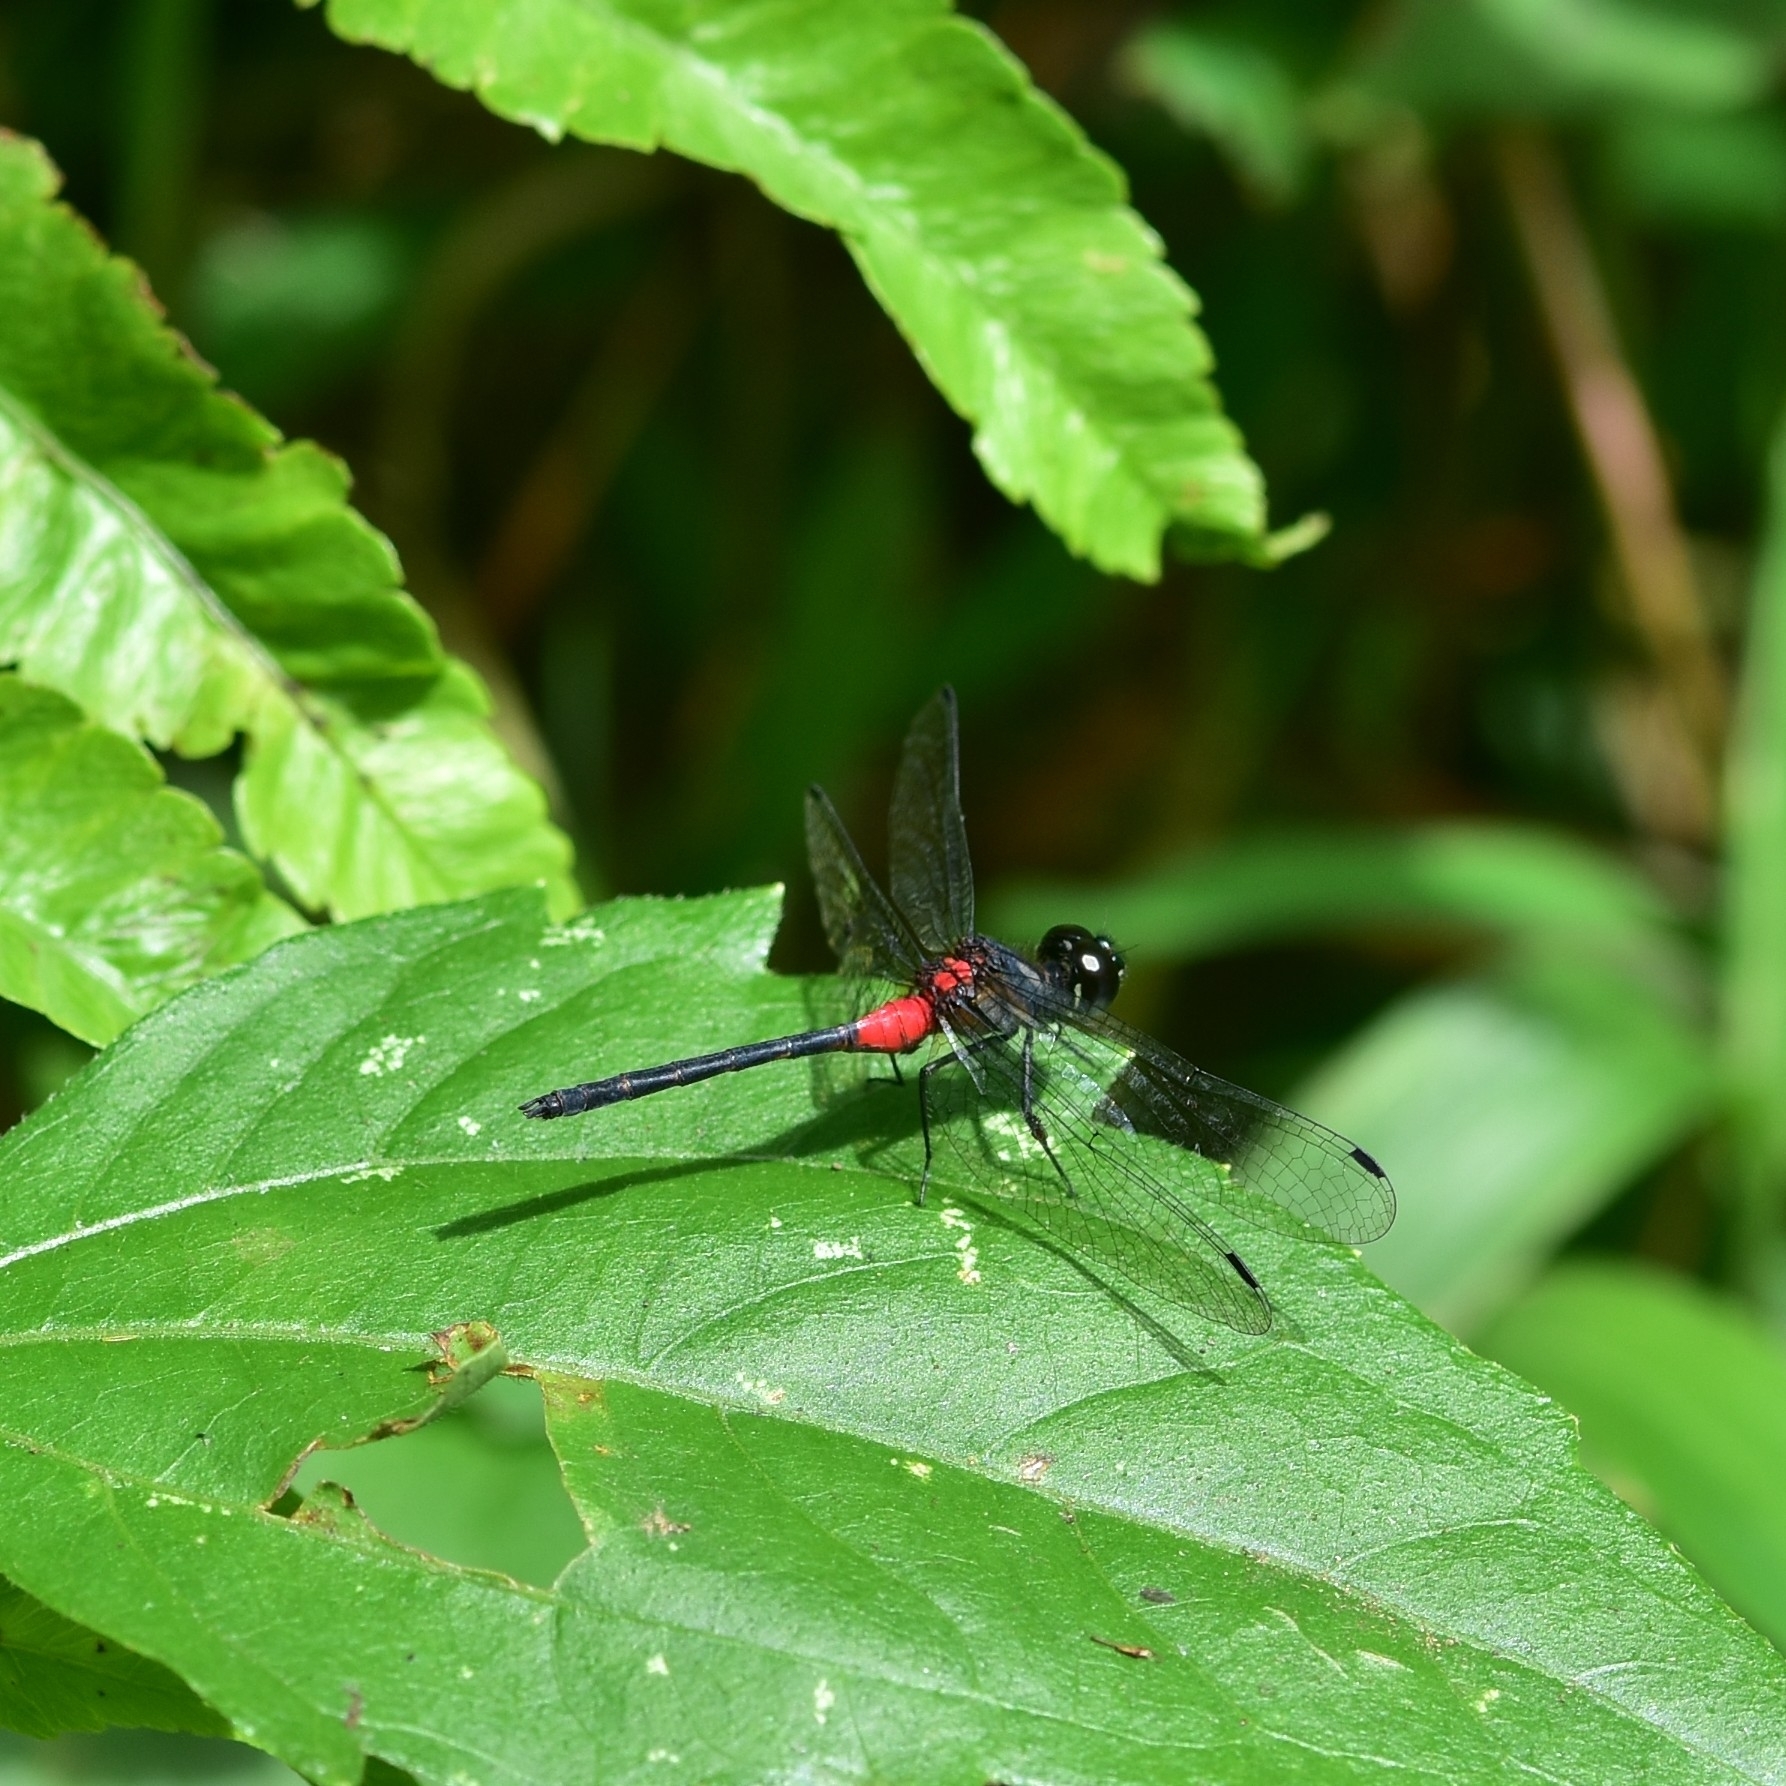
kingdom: Animalia
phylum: Arthropoda
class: Insecta
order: Odonata
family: Libellulidae
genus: Epithemis
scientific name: Epithemis mariae
